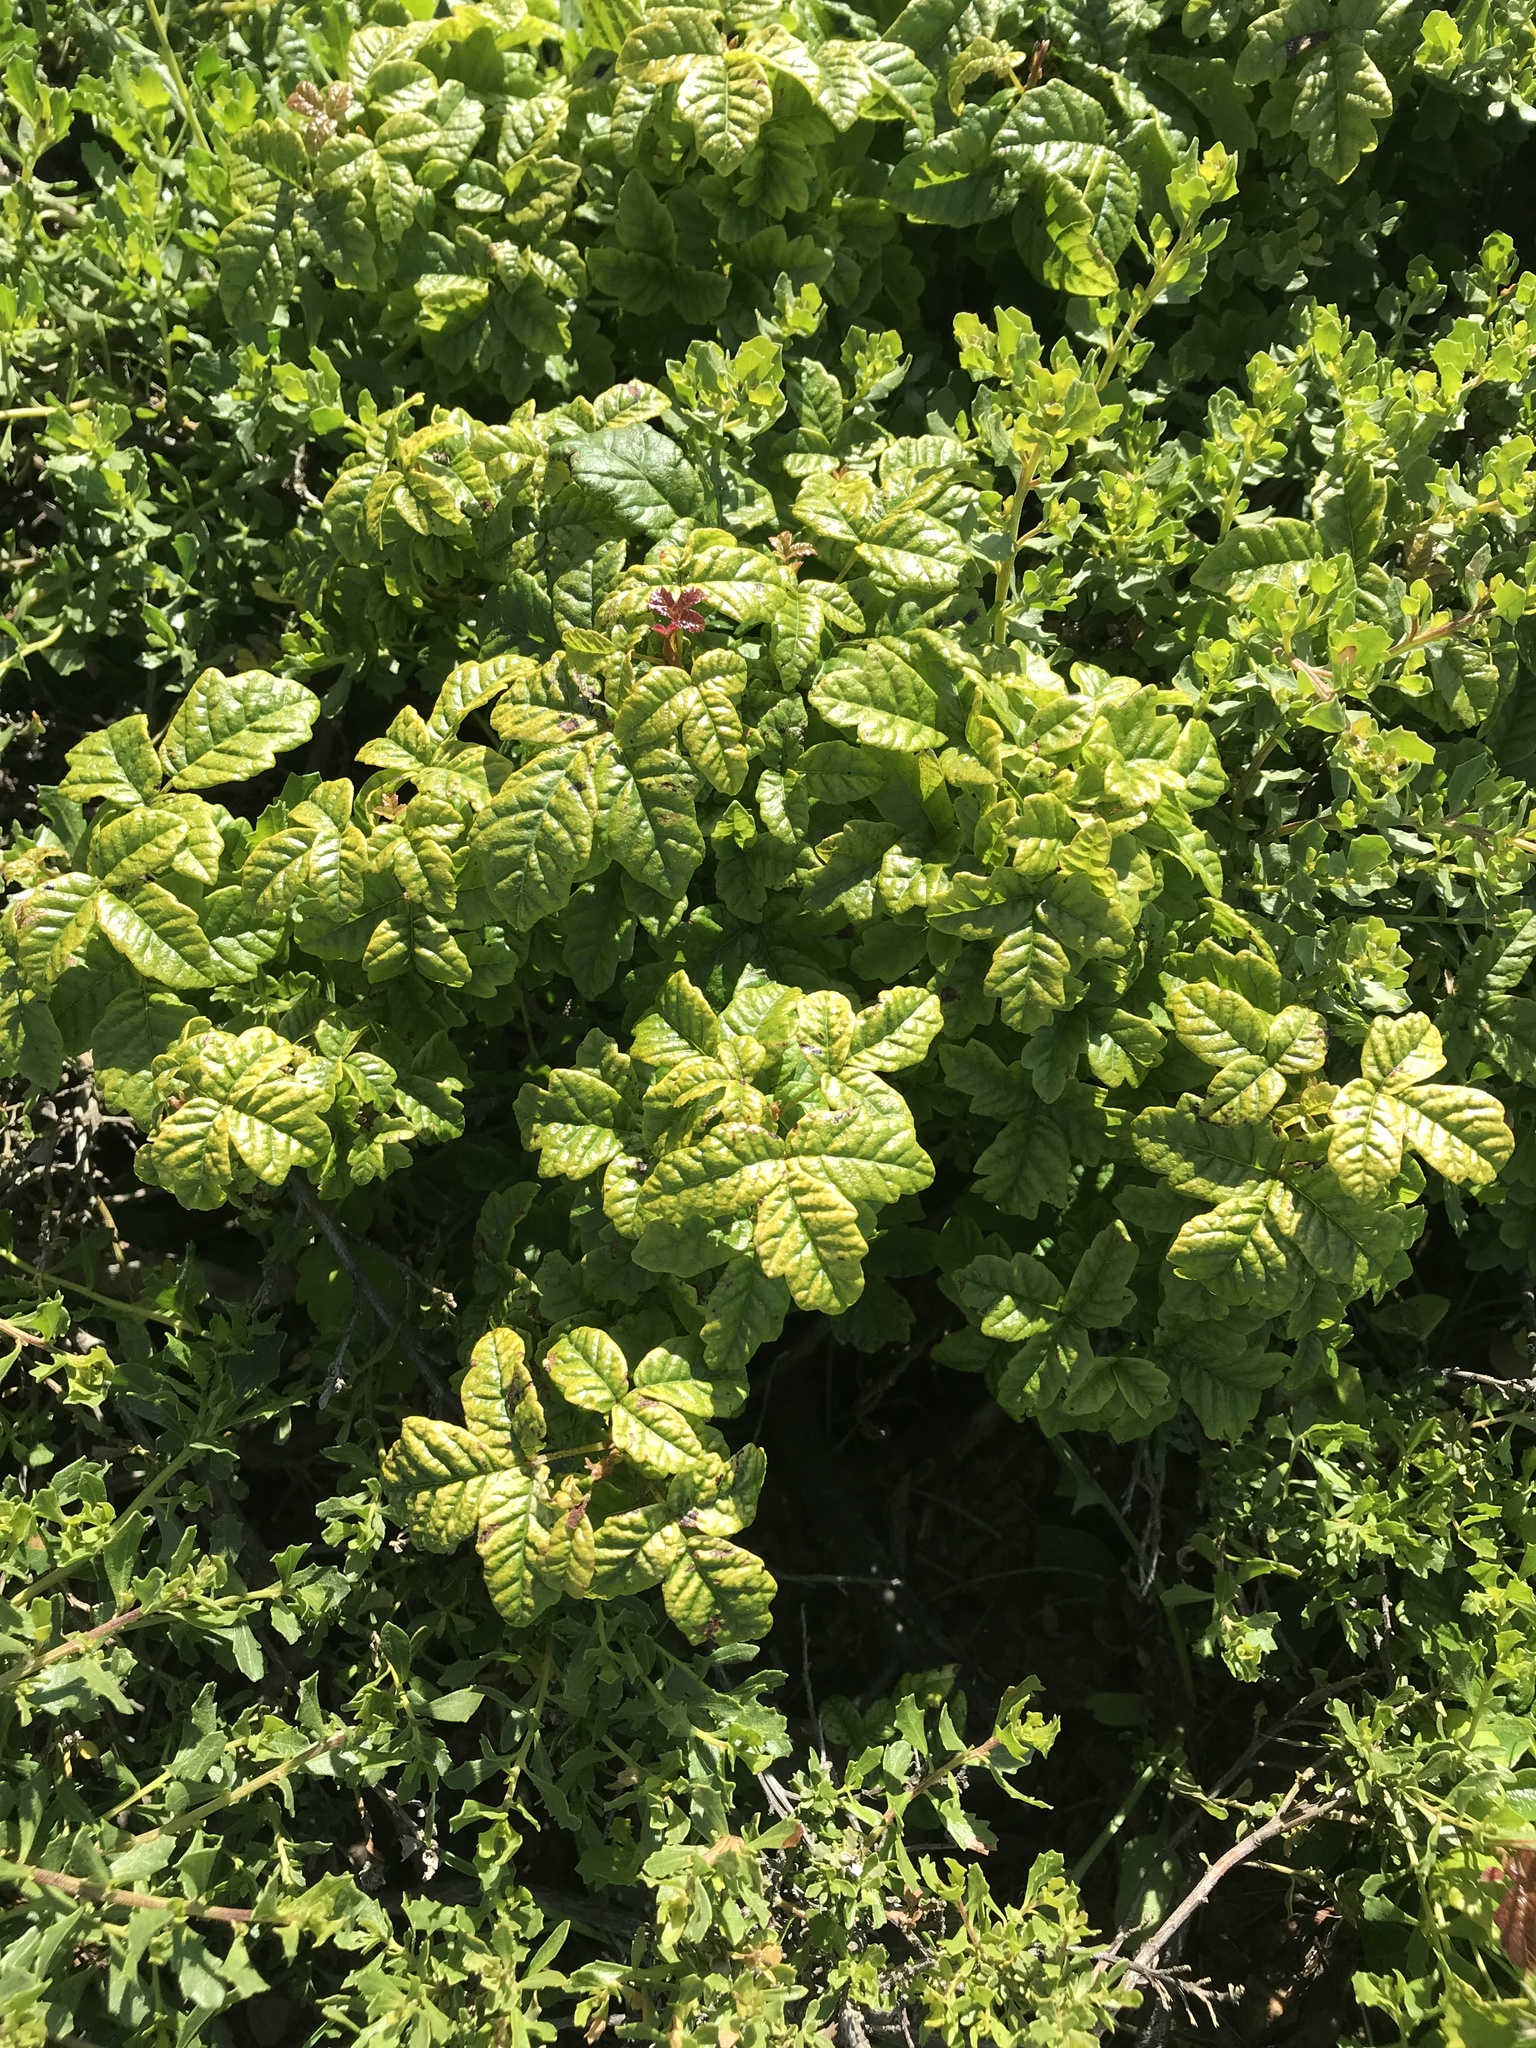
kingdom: Plantae
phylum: Tracheophyta
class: Magnoliopsida
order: Sapindales
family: Anacardiaceae
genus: Toxicodendron
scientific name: Toxicodendron diversilobum
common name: Pacific poison-oak
